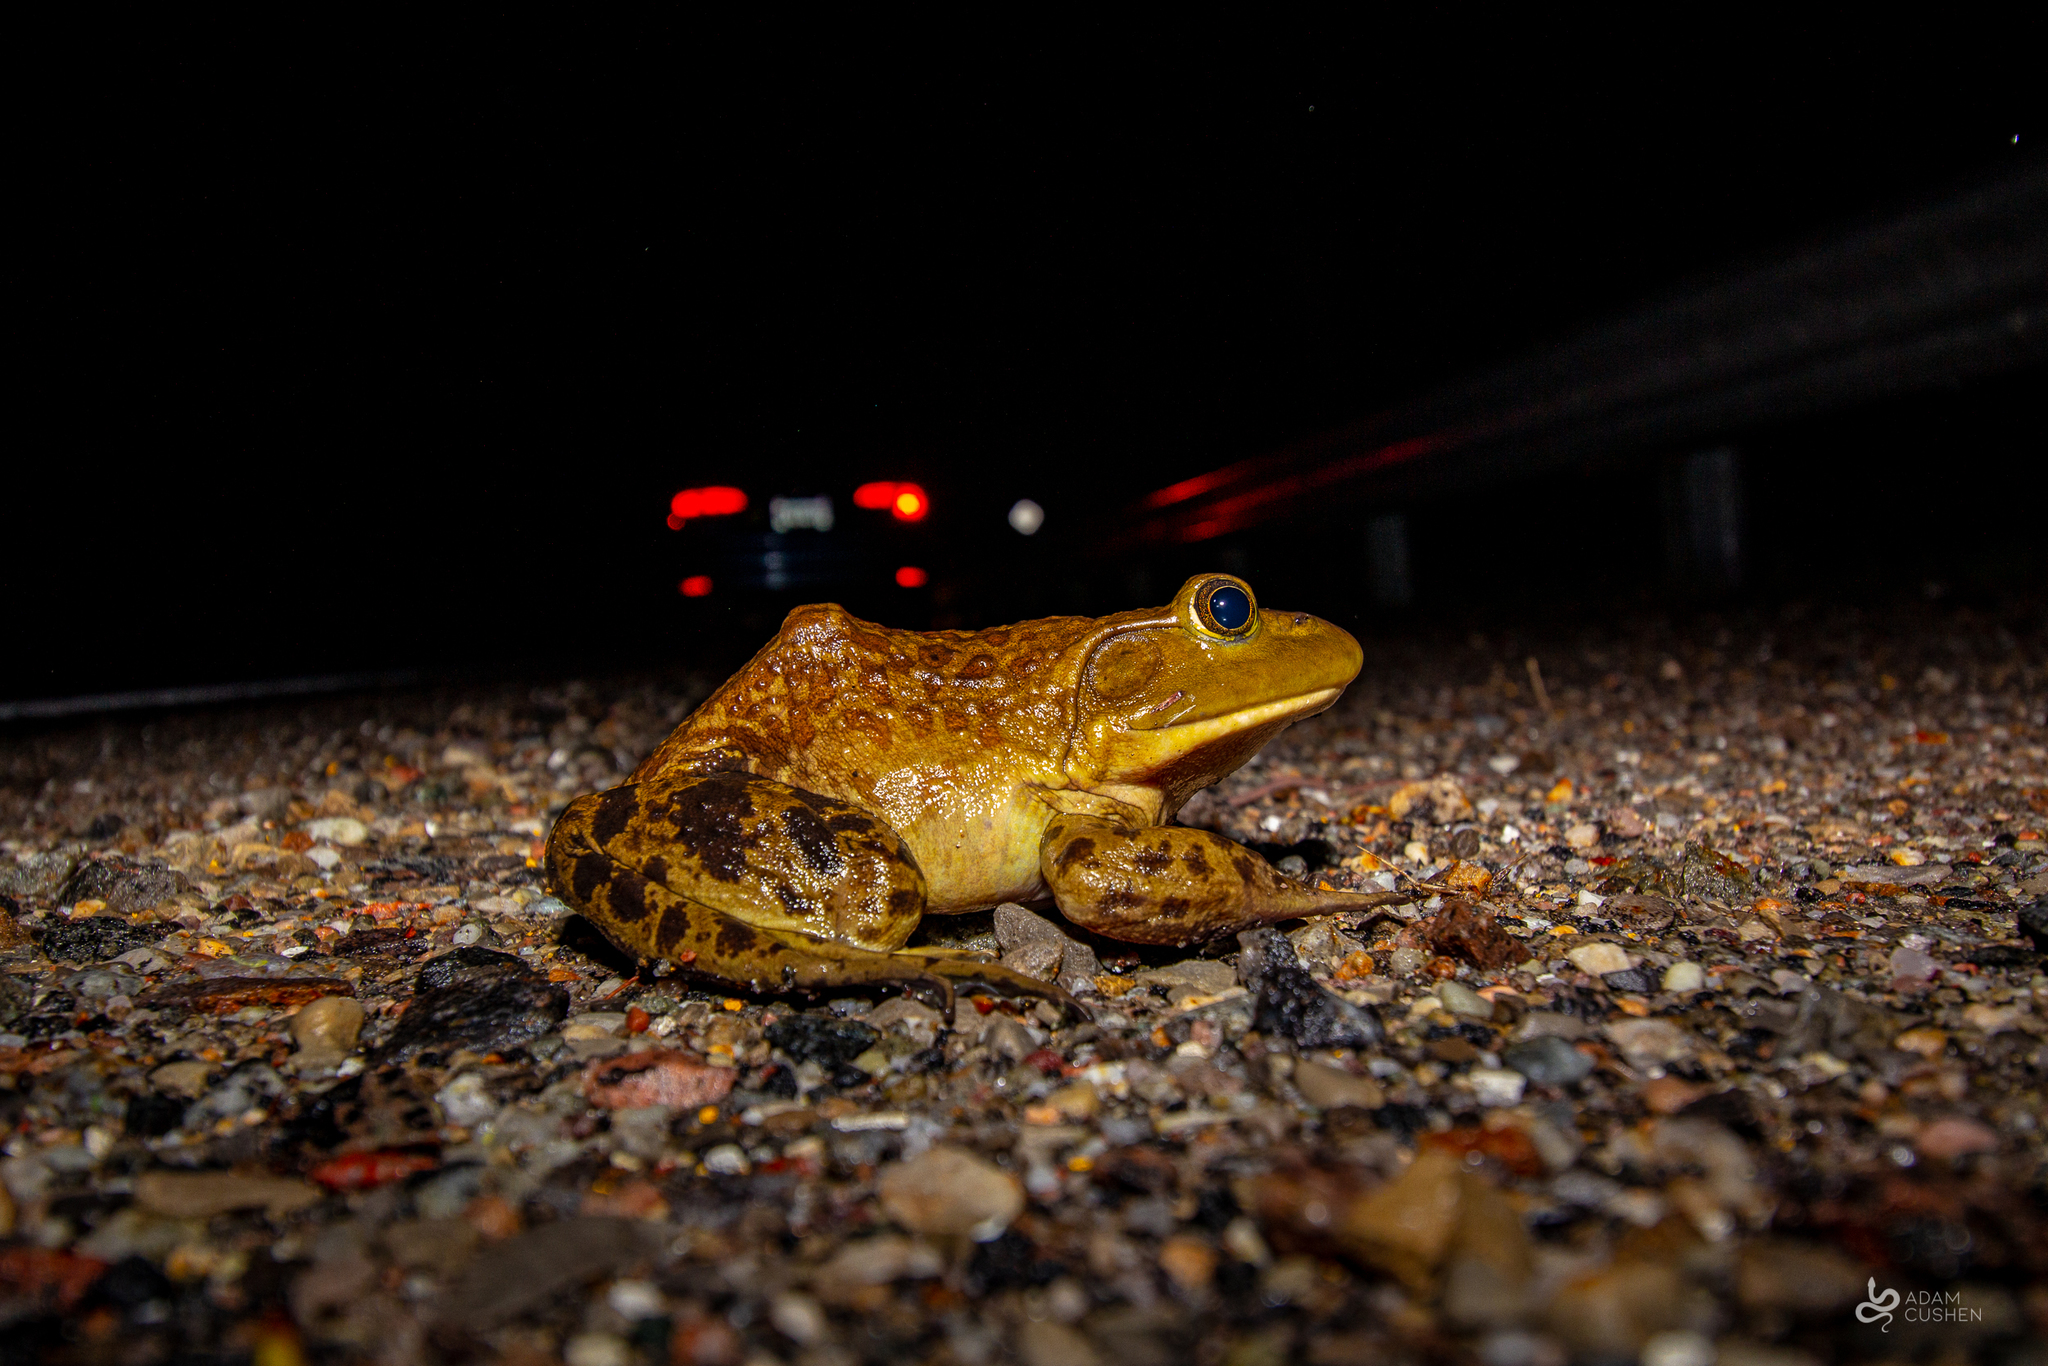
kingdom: Animalia
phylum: Chordata
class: Amphibia
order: Anura
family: Ranidae
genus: Lithobates
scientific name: Lithobates catesbeianus
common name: American bullfrog
